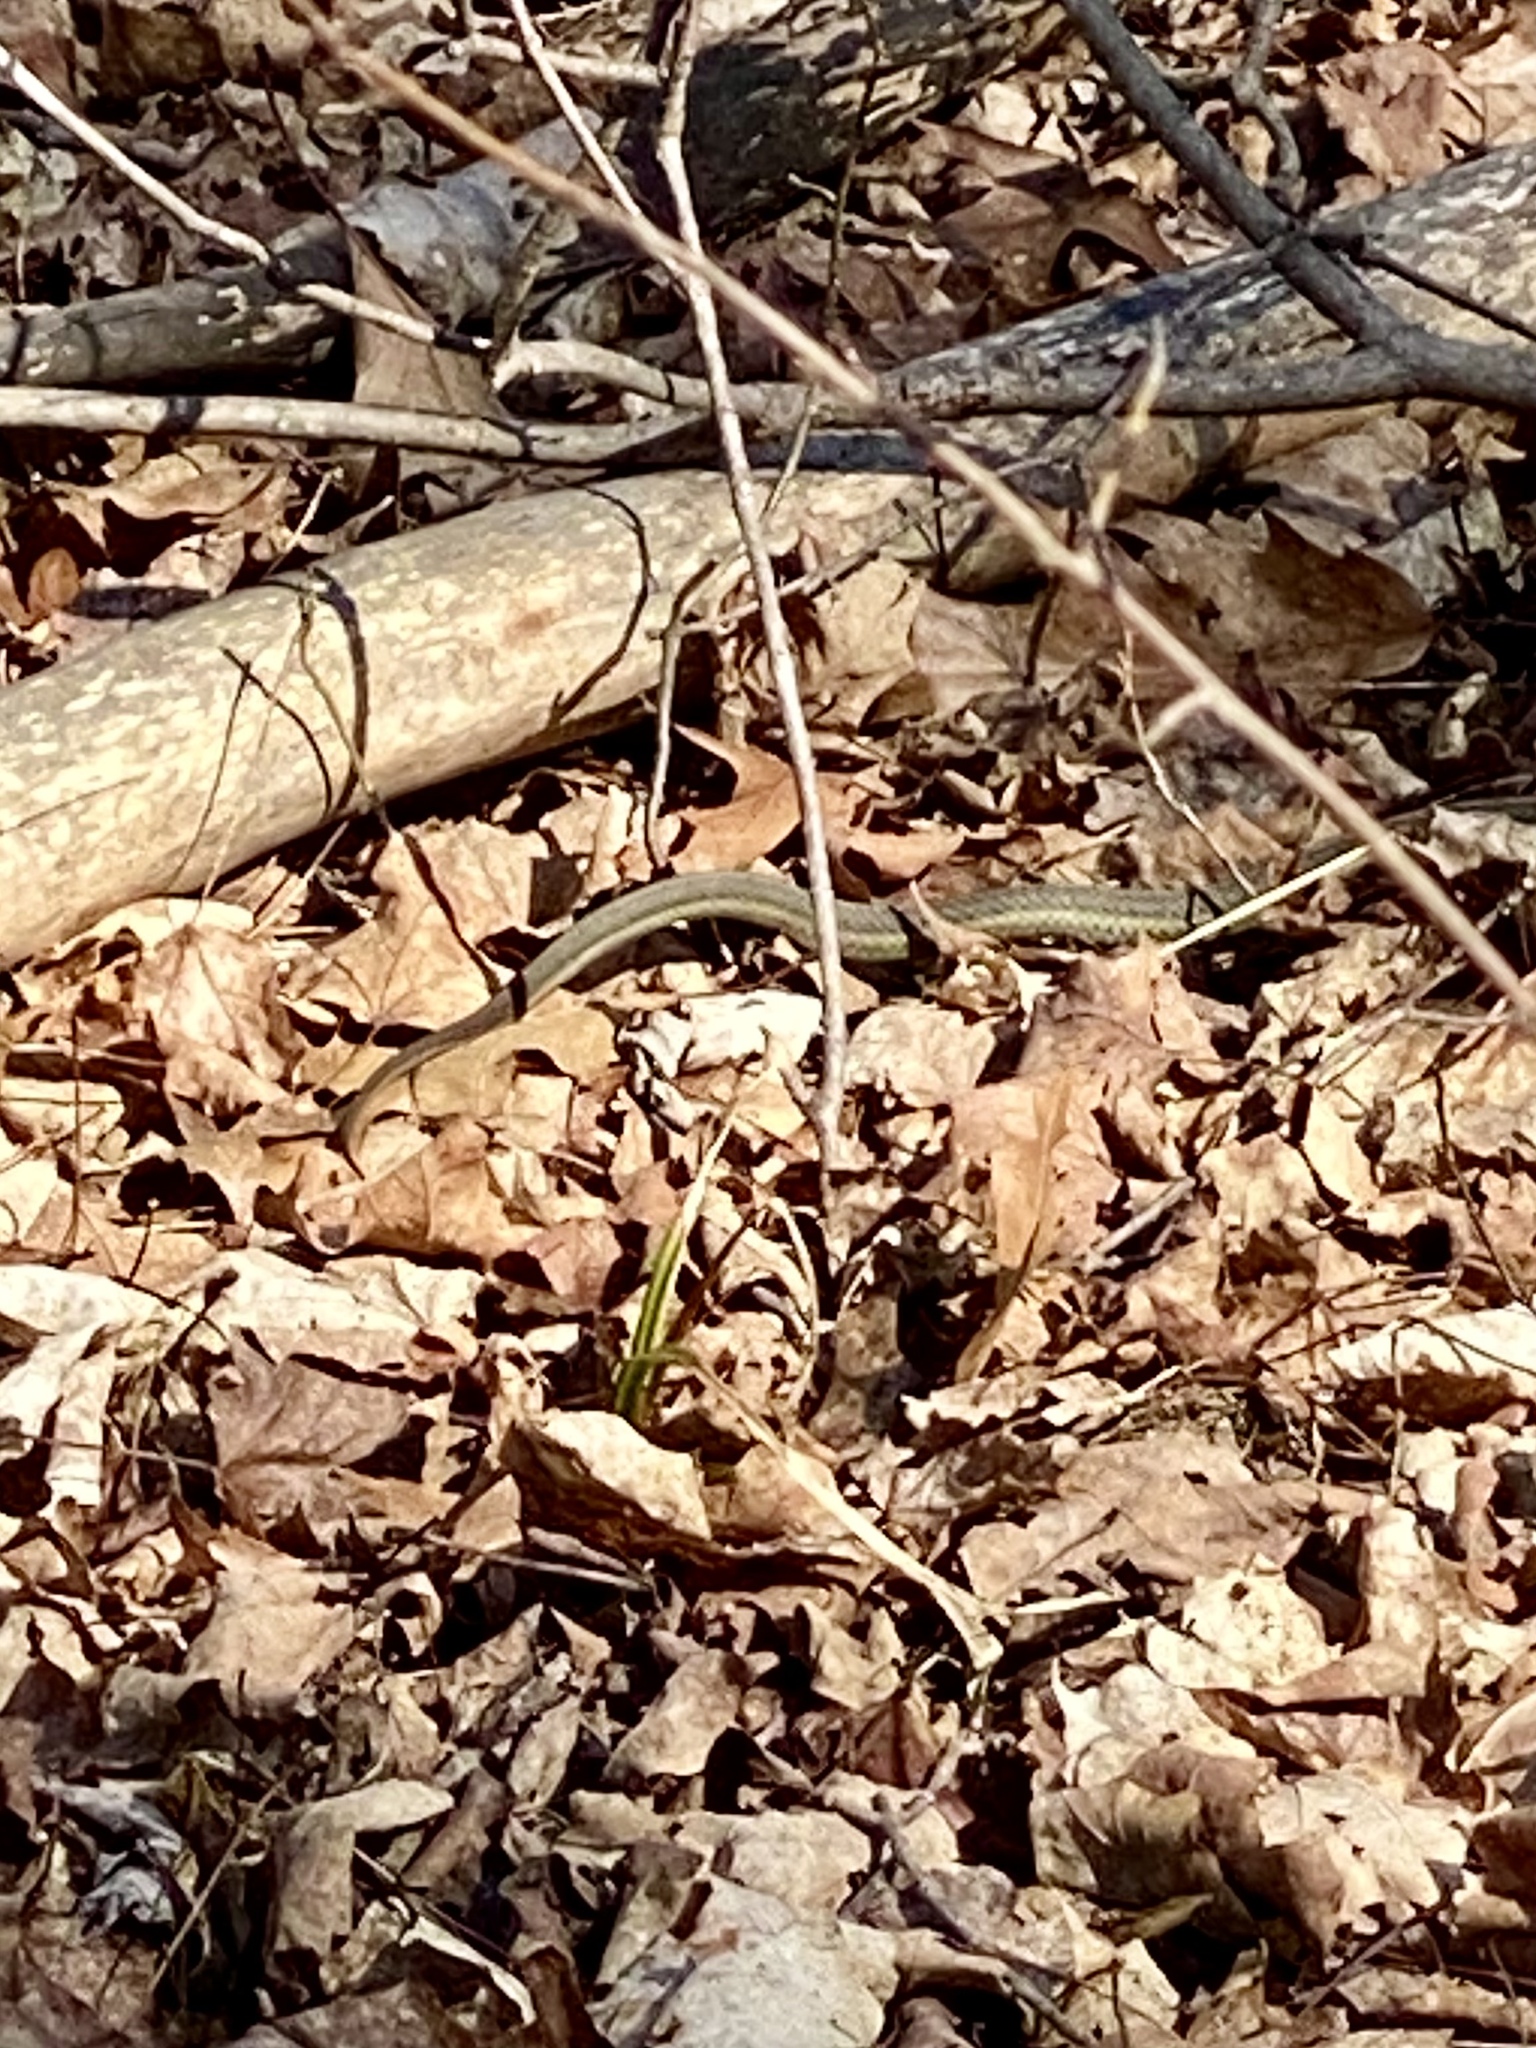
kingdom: Animalia
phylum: Chordata
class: Squamata
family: Colubridae
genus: Thamnophis
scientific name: Thamnophis sirtalis
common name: Common garter snake
